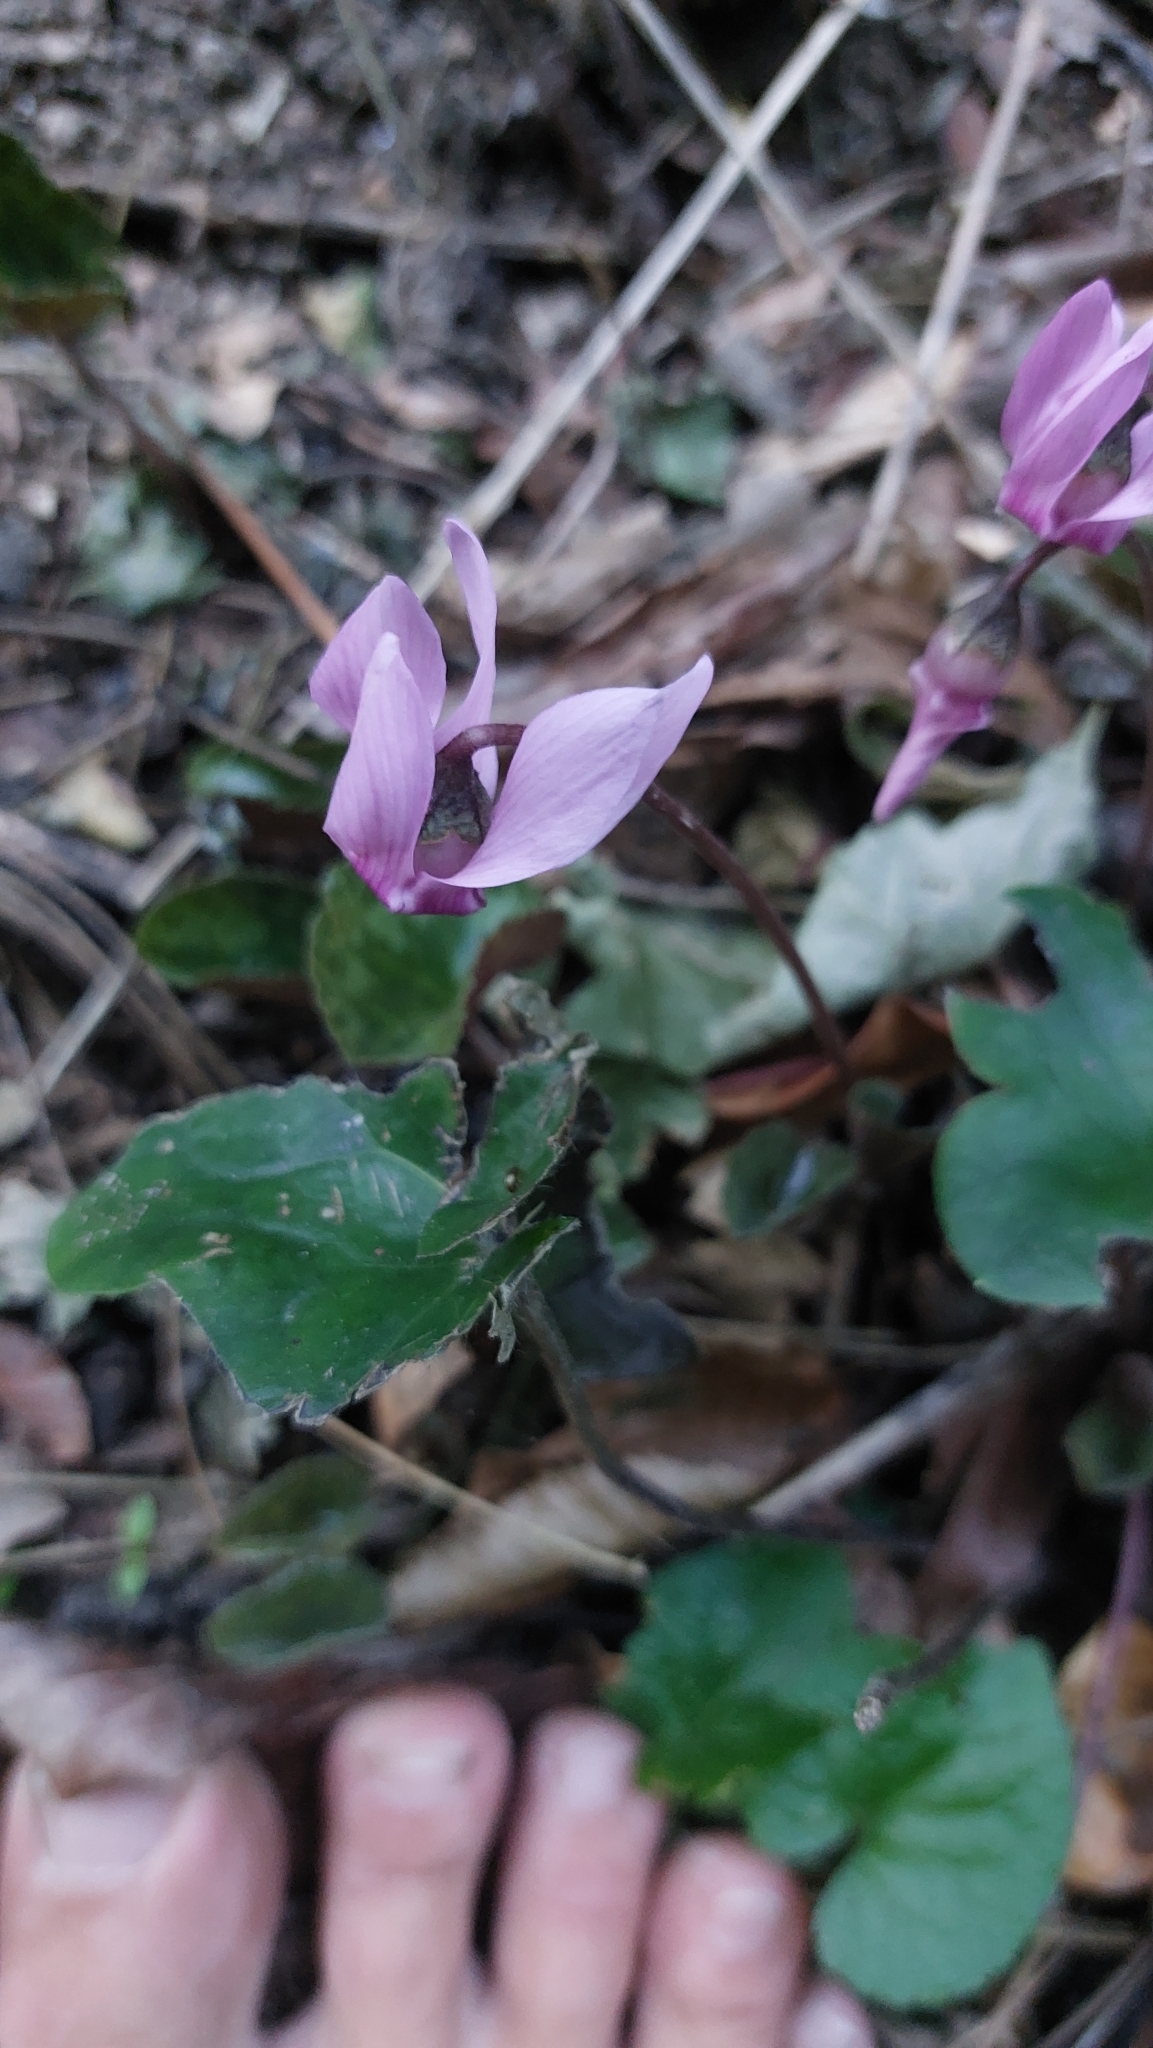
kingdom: Plantae
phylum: Tracheophyta
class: Magnoliopsida
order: Ericales
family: Primulaceae
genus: Cyclamen
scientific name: Cyclamen purpurascens
